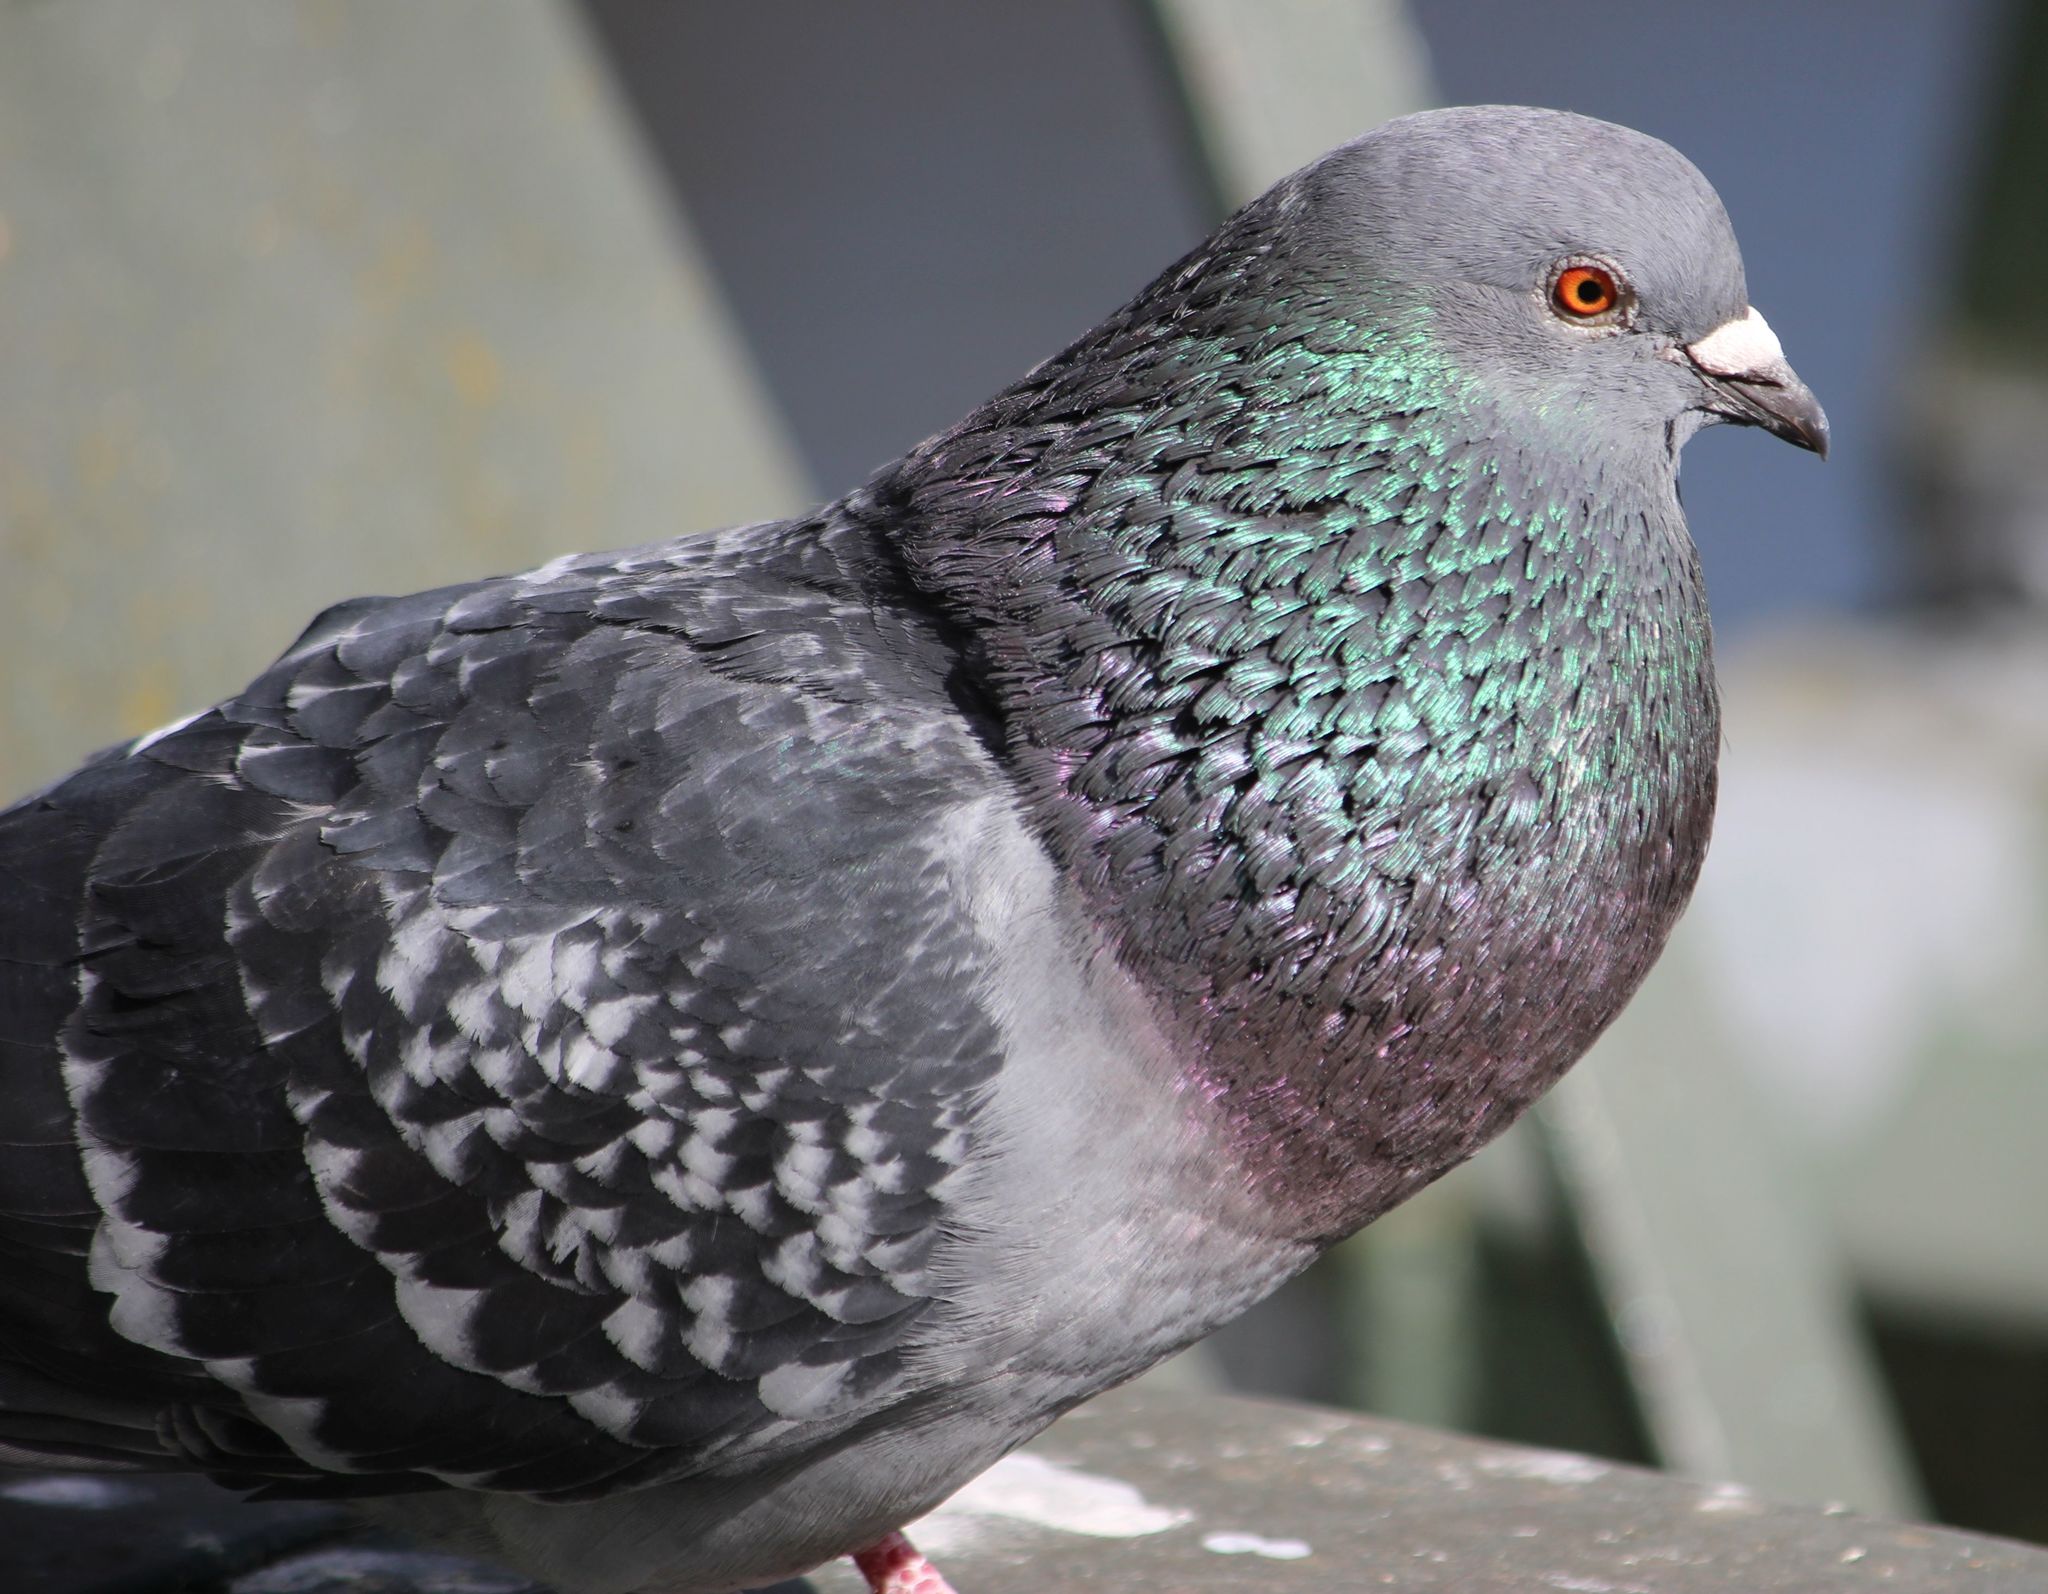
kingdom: Animalia
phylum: Chordata
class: Aves
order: Columbiformes
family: Columbidae
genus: Columba
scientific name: Columba livia
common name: Rock pigeon
